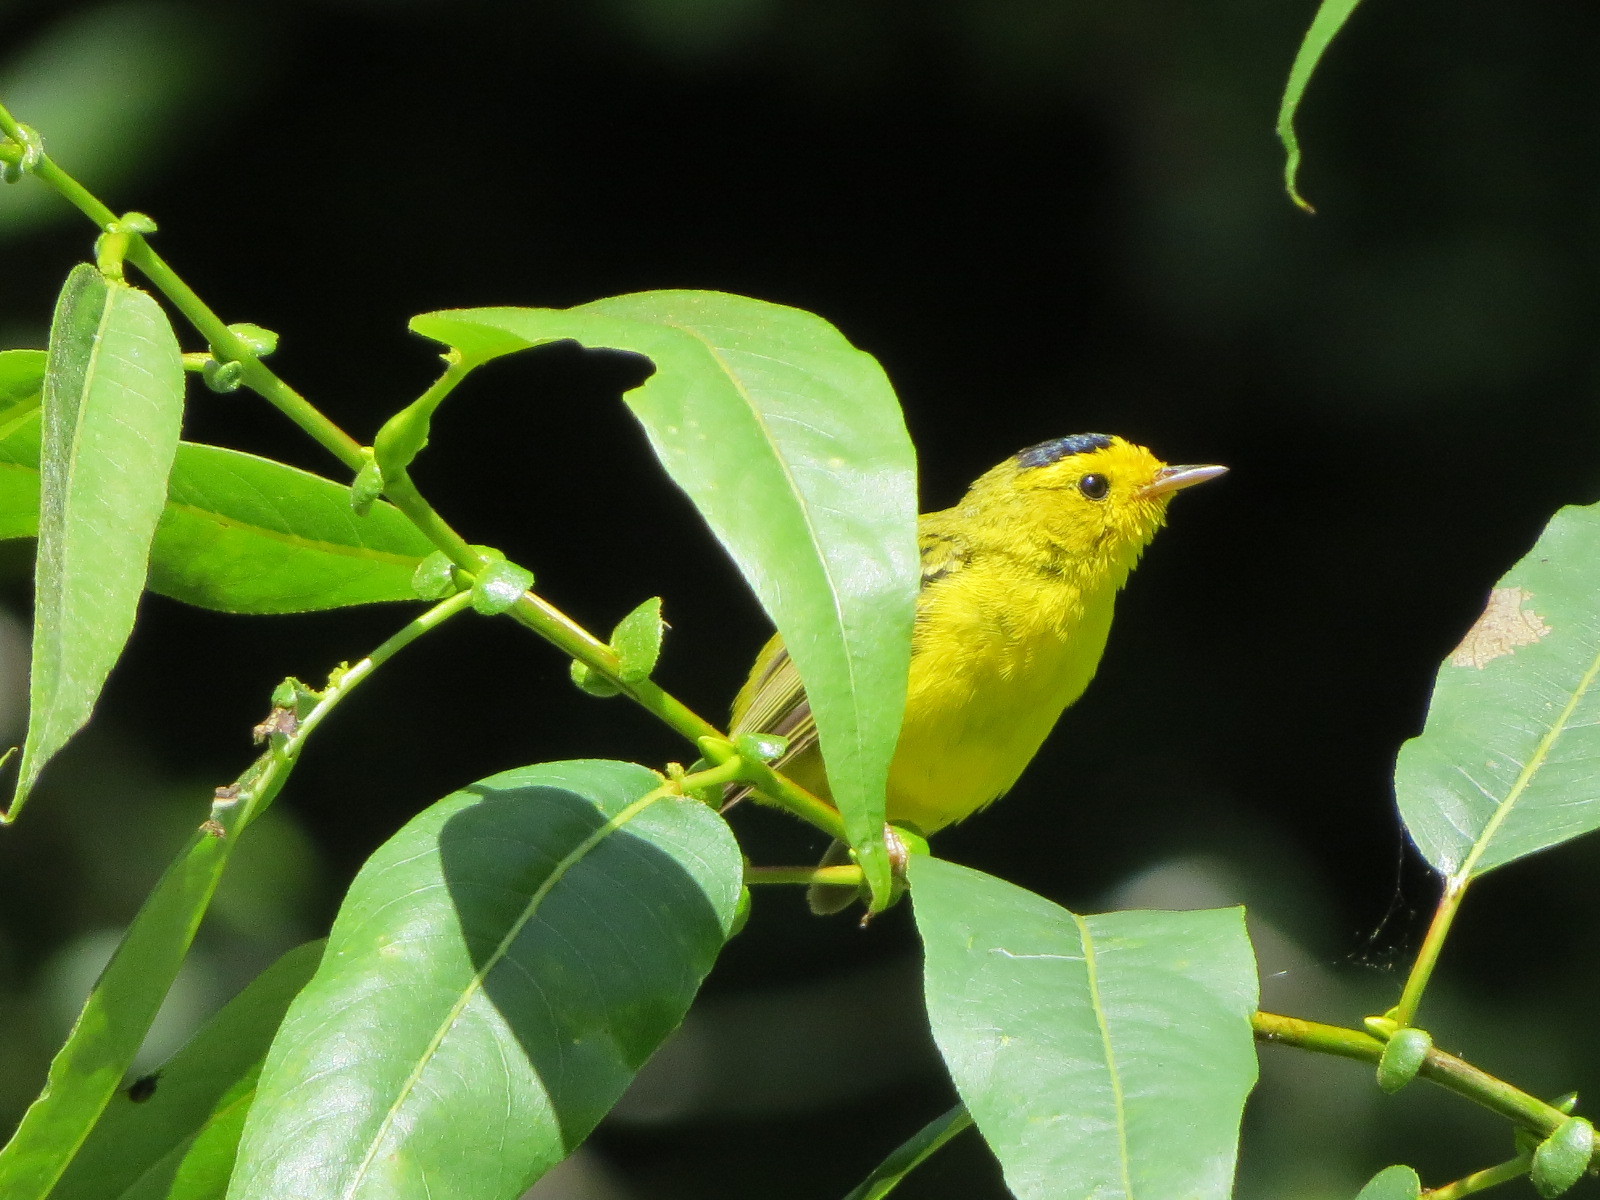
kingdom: Animalia
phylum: Chordata
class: Aves
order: Passeriformes
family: Parulidae
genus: Cardellina
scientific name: Cardellina pusilla
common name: Wilson's warbler
